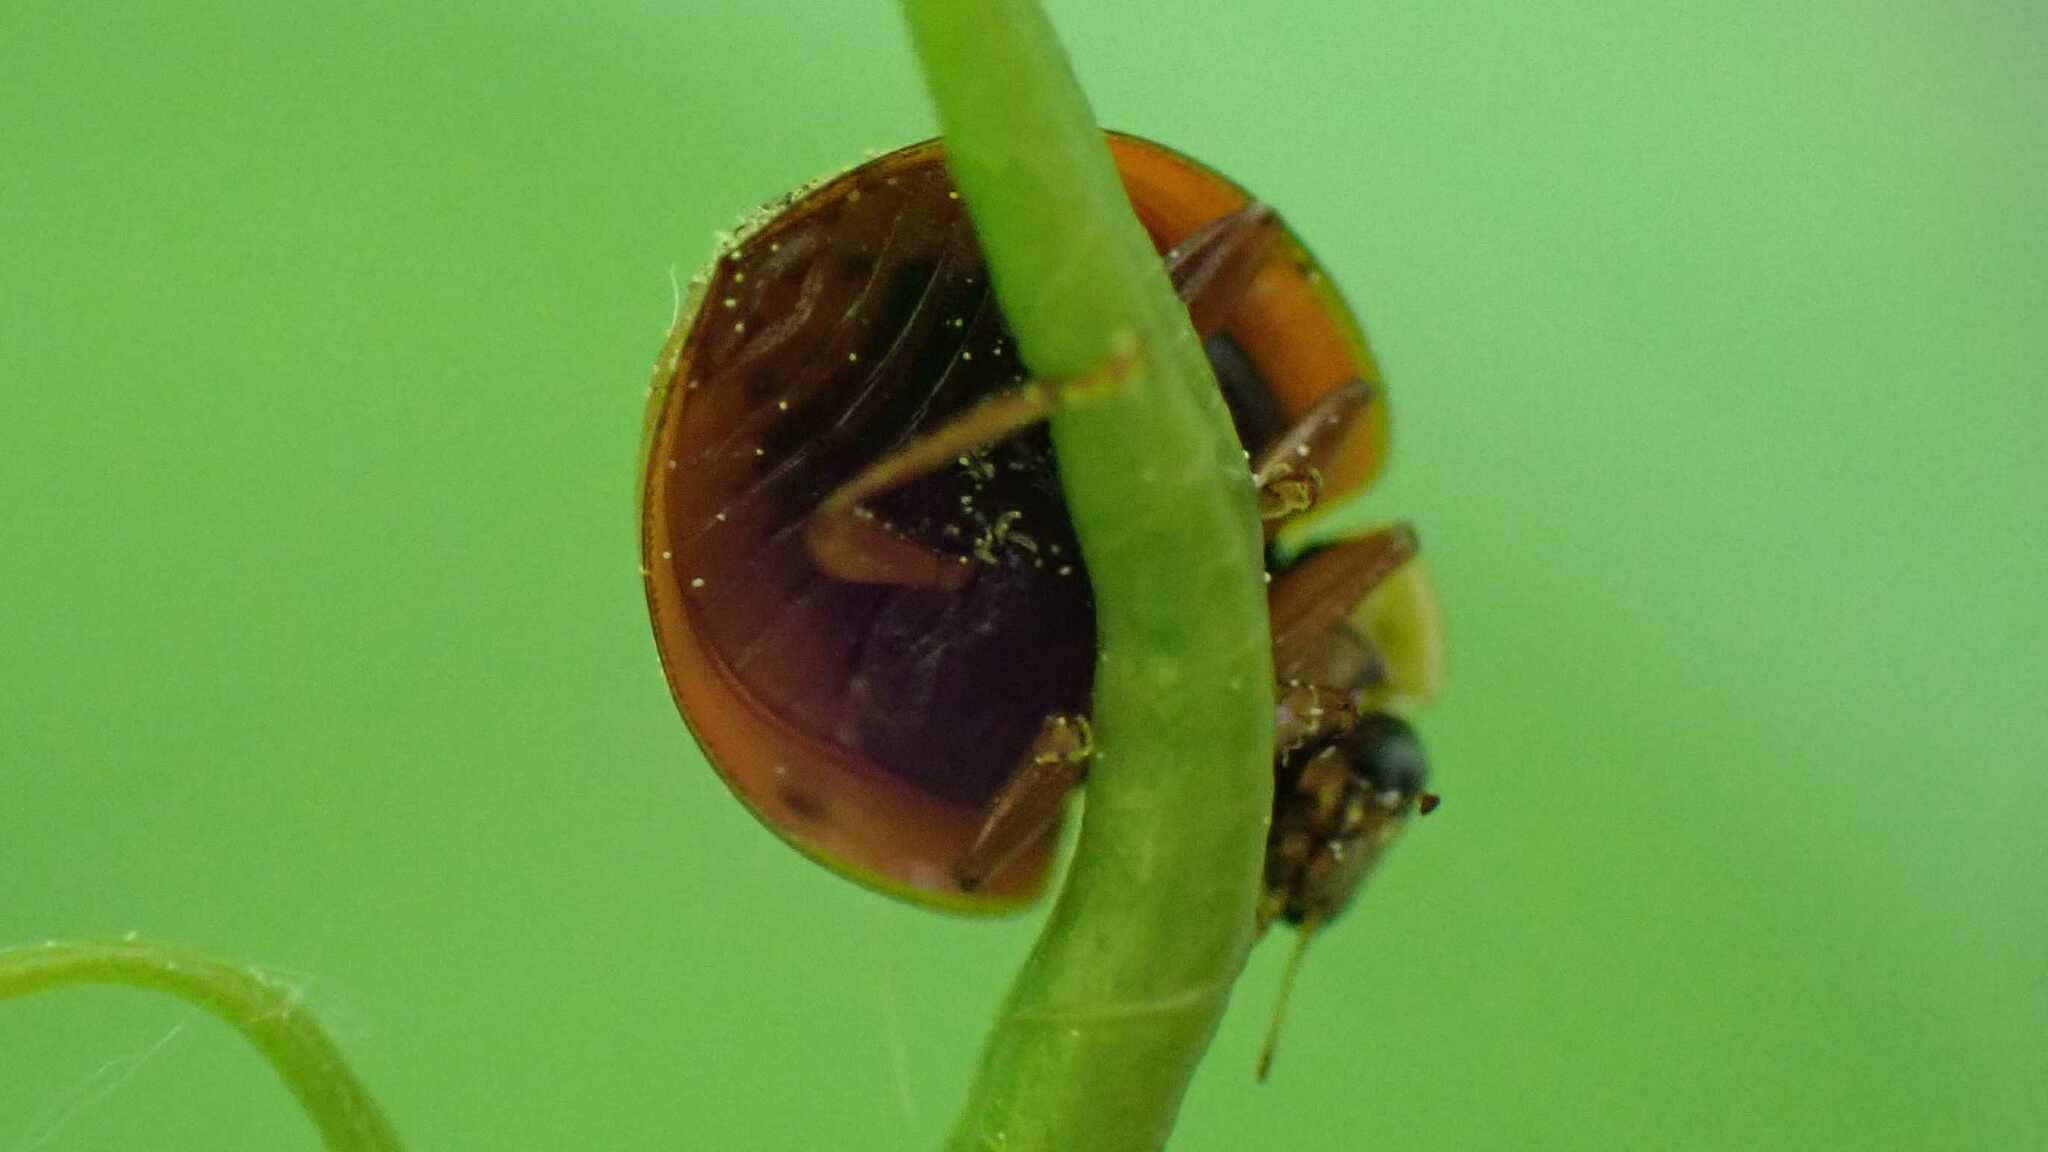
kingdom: Fungi
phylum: Ascomycota
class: Laboulbeniomycetes
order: Laboulbeniales
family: Laboulbeniaceae
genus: Hesperomyces
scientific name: Hesperomyces harmoniae
